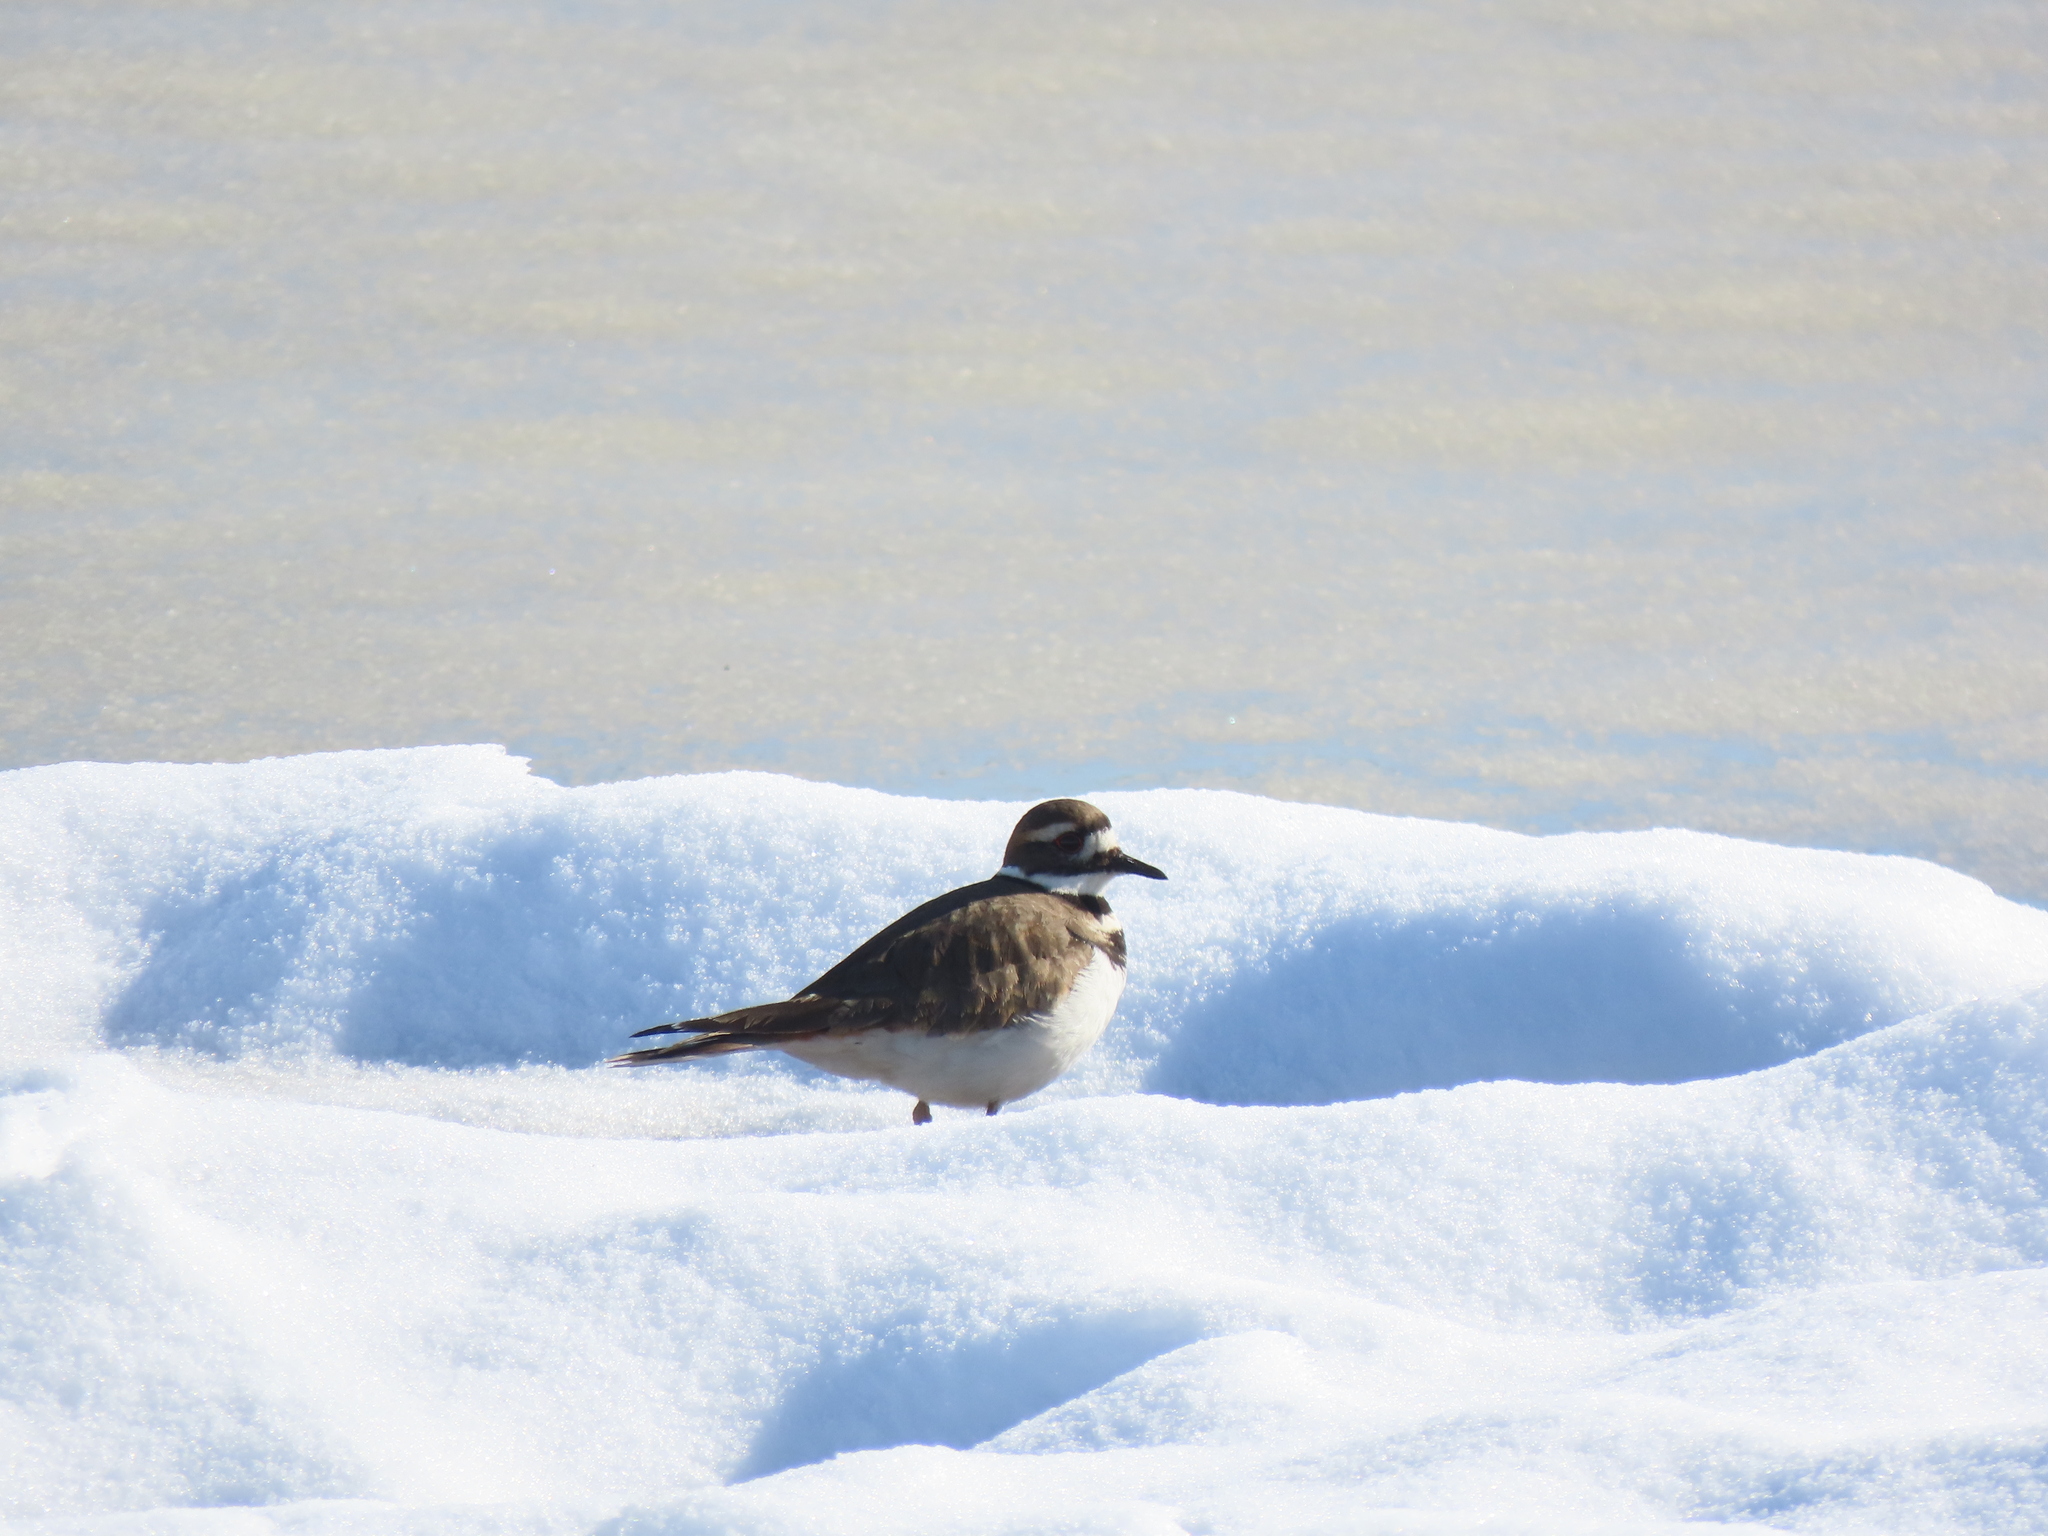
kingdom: Animalia
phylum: Chordata
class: Aves
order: Charadriiformes
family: Charadriidae
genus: Charadrius
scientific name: Charadrius vociferus
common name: Killdeer
